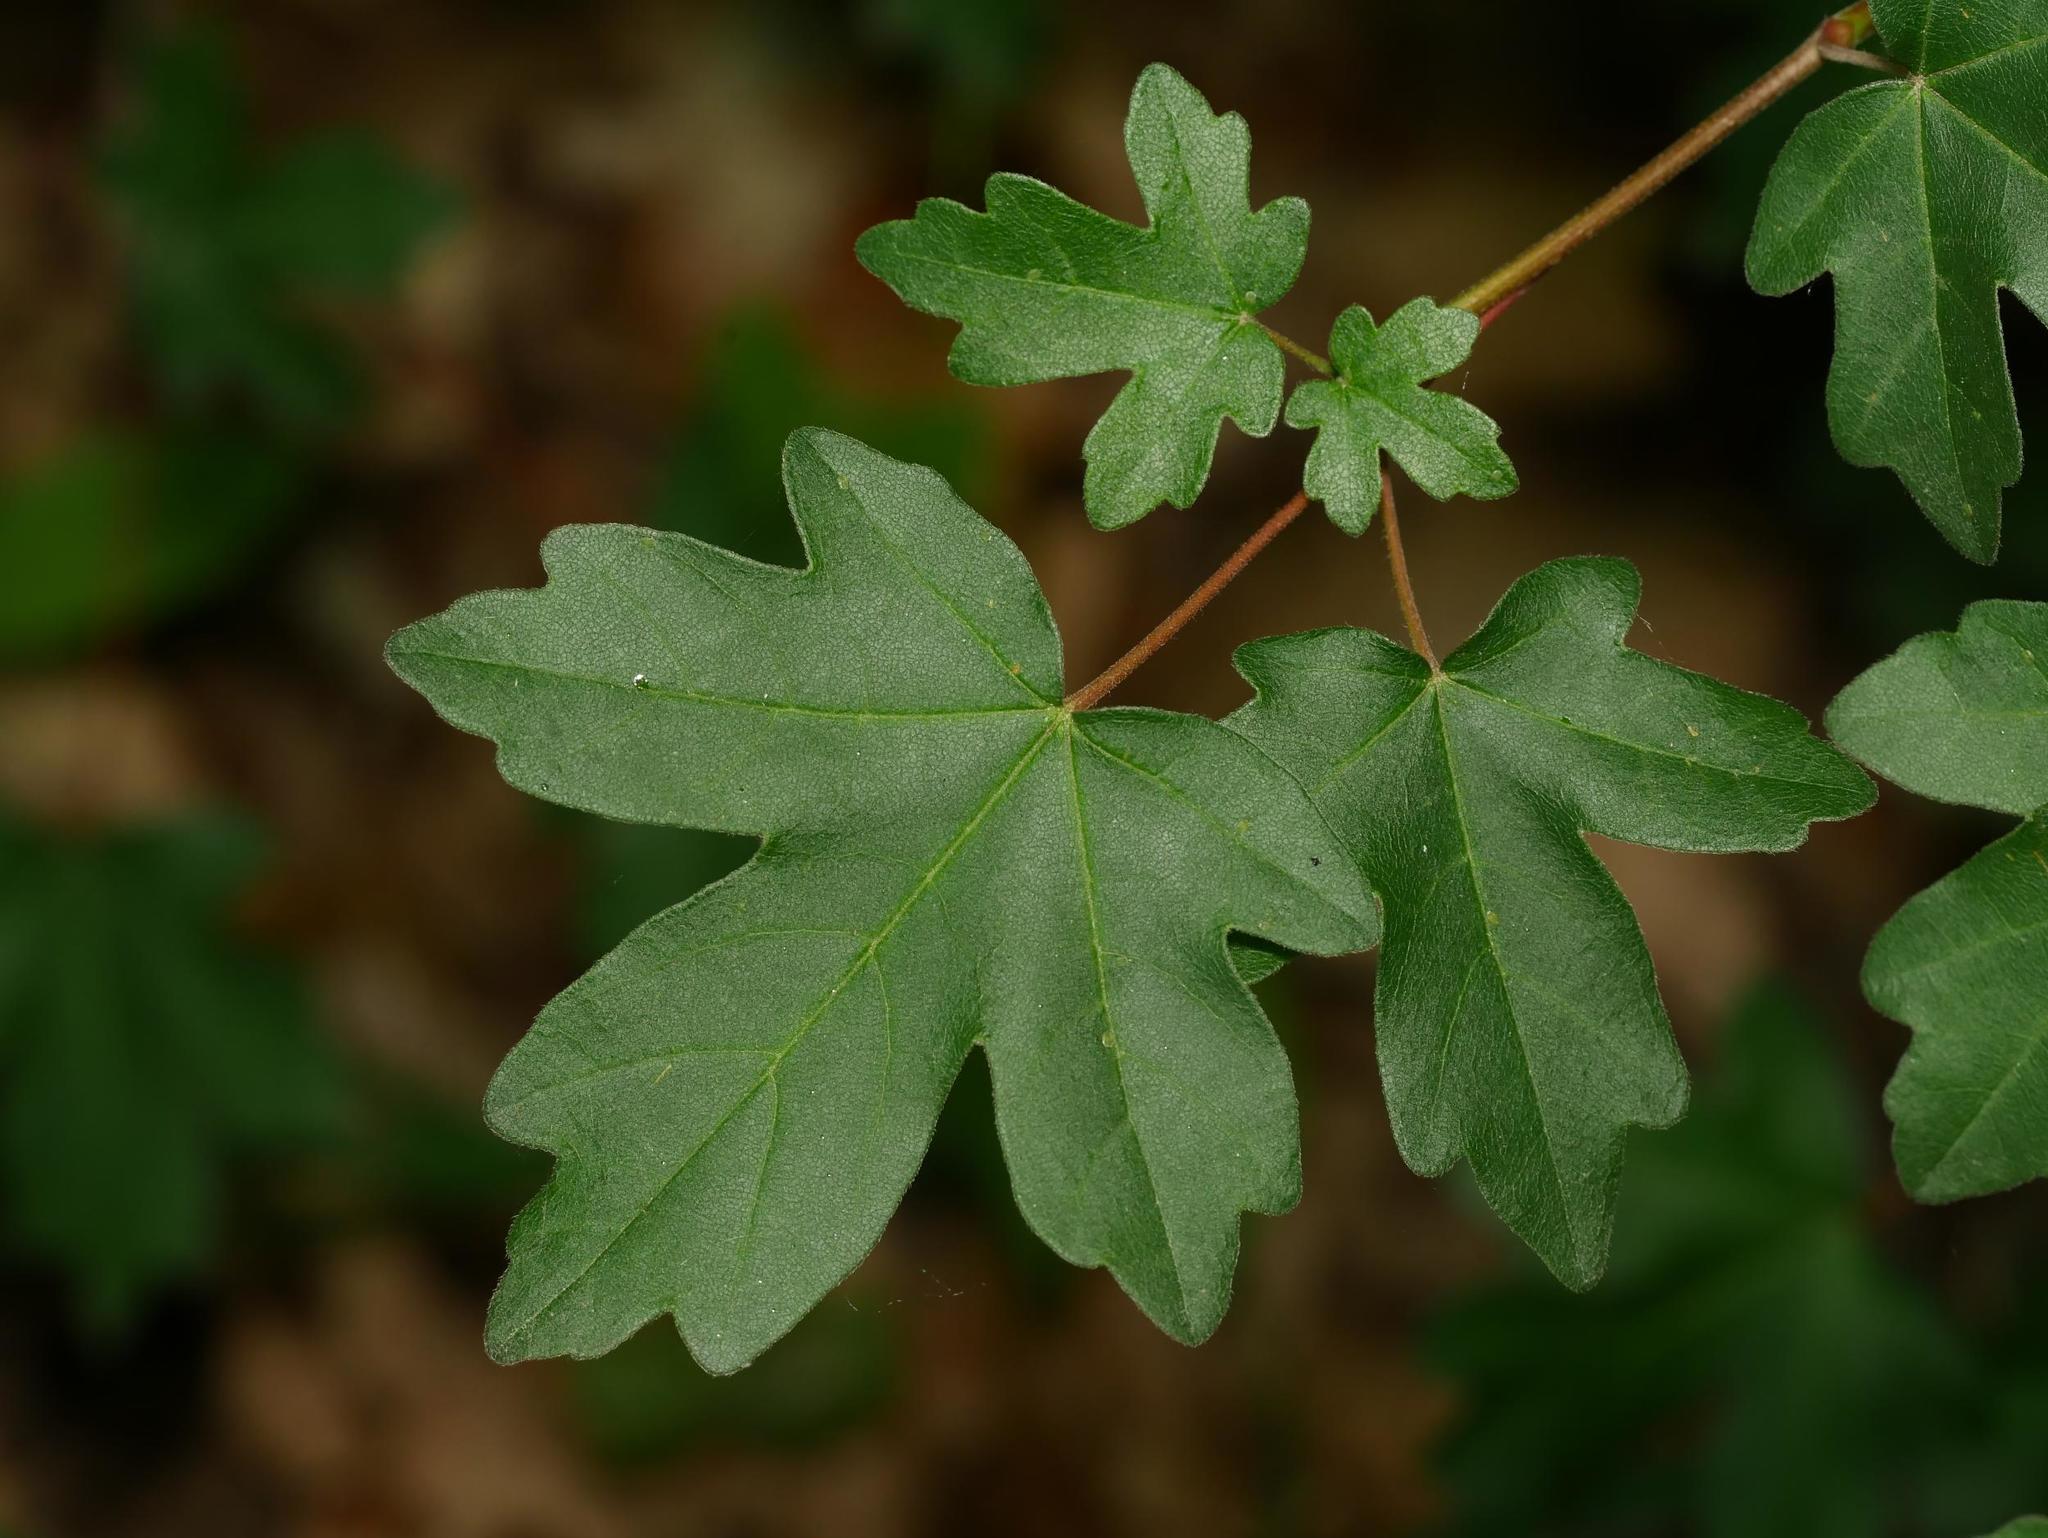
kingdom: Plantae
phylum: Tracheophyta
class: Magnoliopsida
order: Sapindales
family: Sapindaceae
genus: Acer
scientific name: Acer campestre
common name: Field maple
